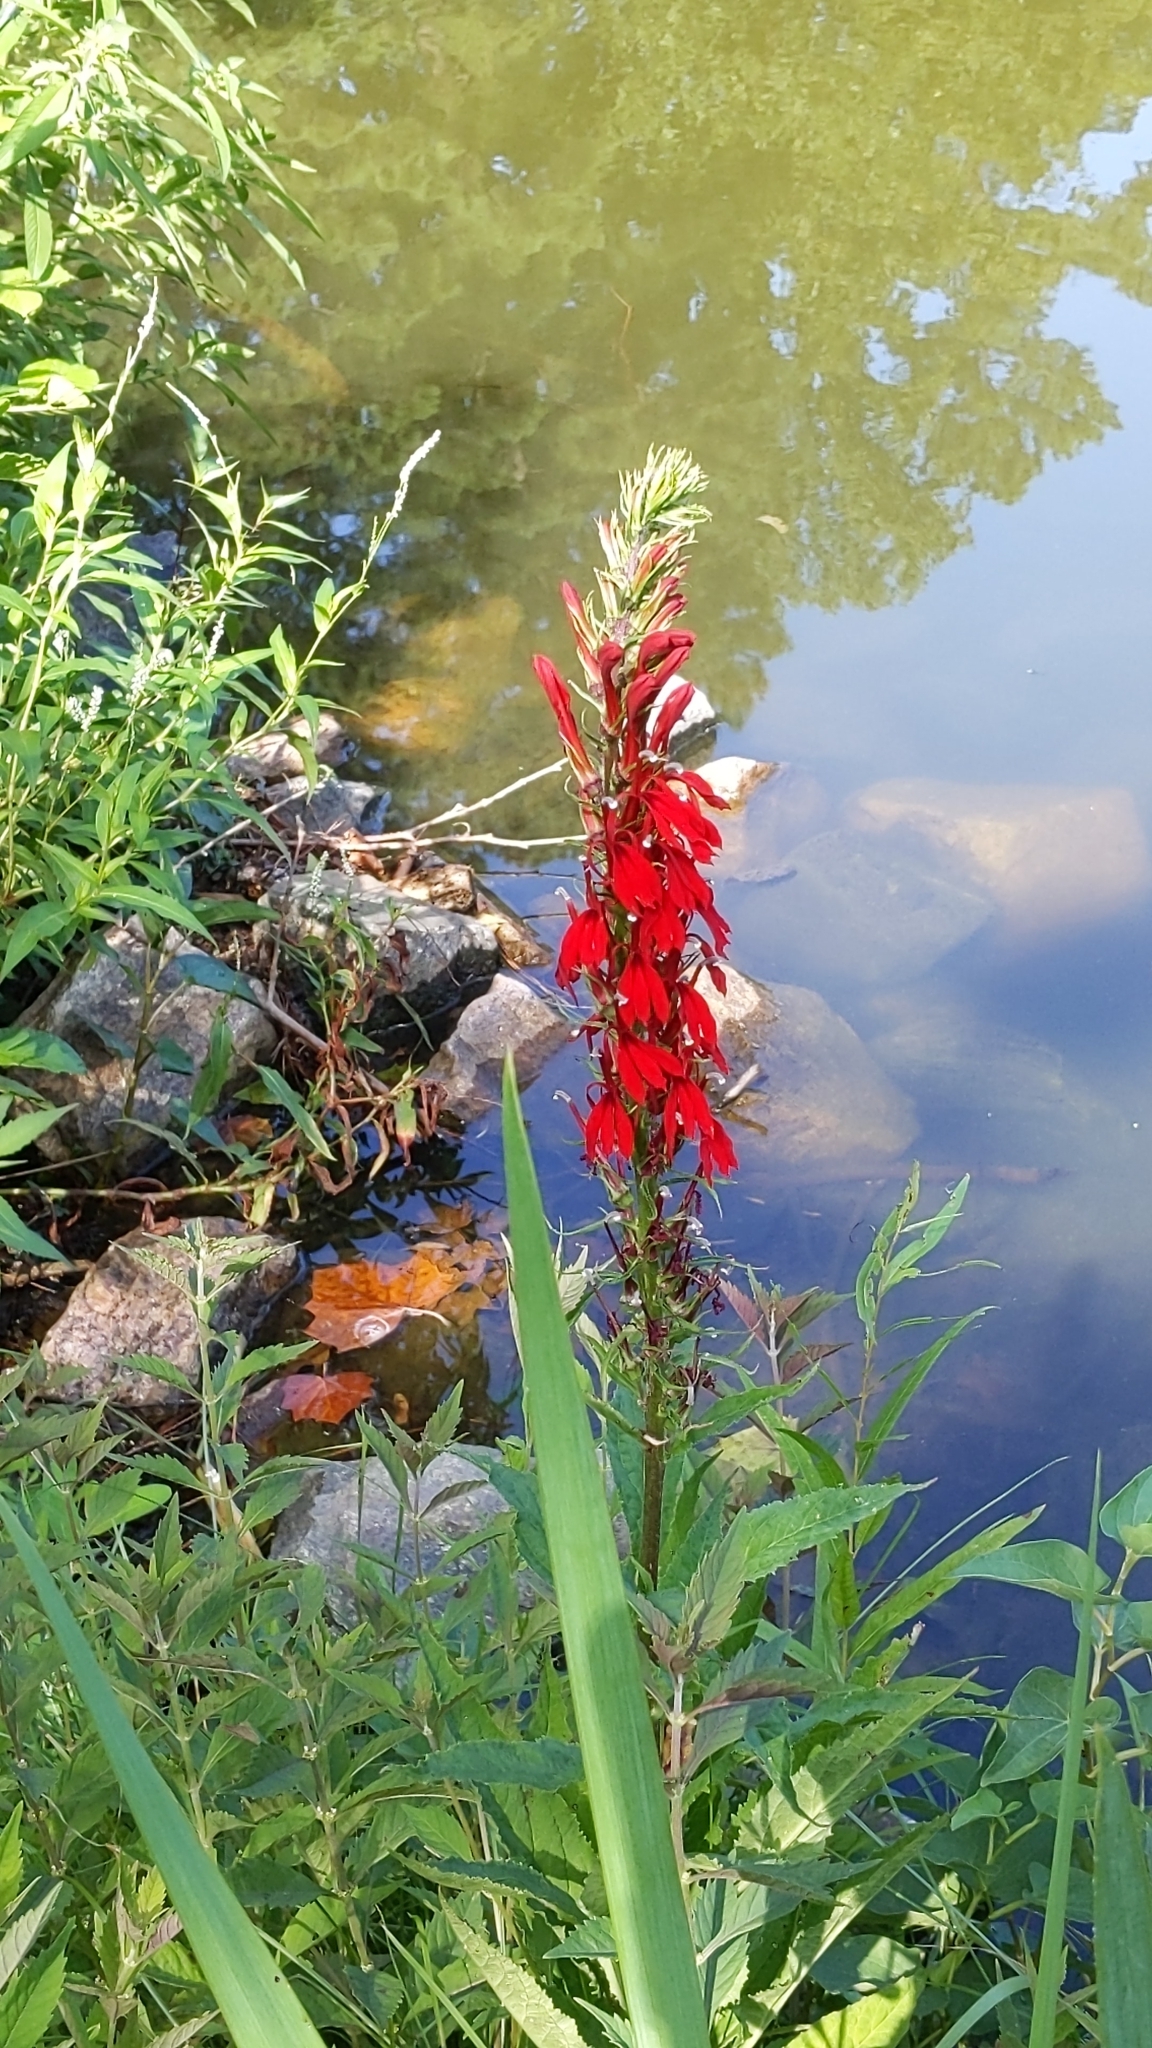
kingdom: Plantae
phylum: Tracheophyta
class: Magnoliopsida
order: Asterales
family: Campanulaceae
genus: Lobelia
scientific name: Lobelia cardinalis
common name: Cardinal flower
